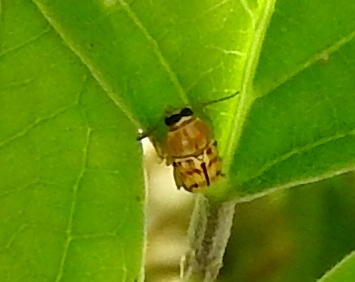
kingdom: Animalia
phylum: Arthropoda
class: Insecta
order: Coleoptera
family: Chrysomelidae
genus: Griburius
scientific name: Griburius puncturatus
